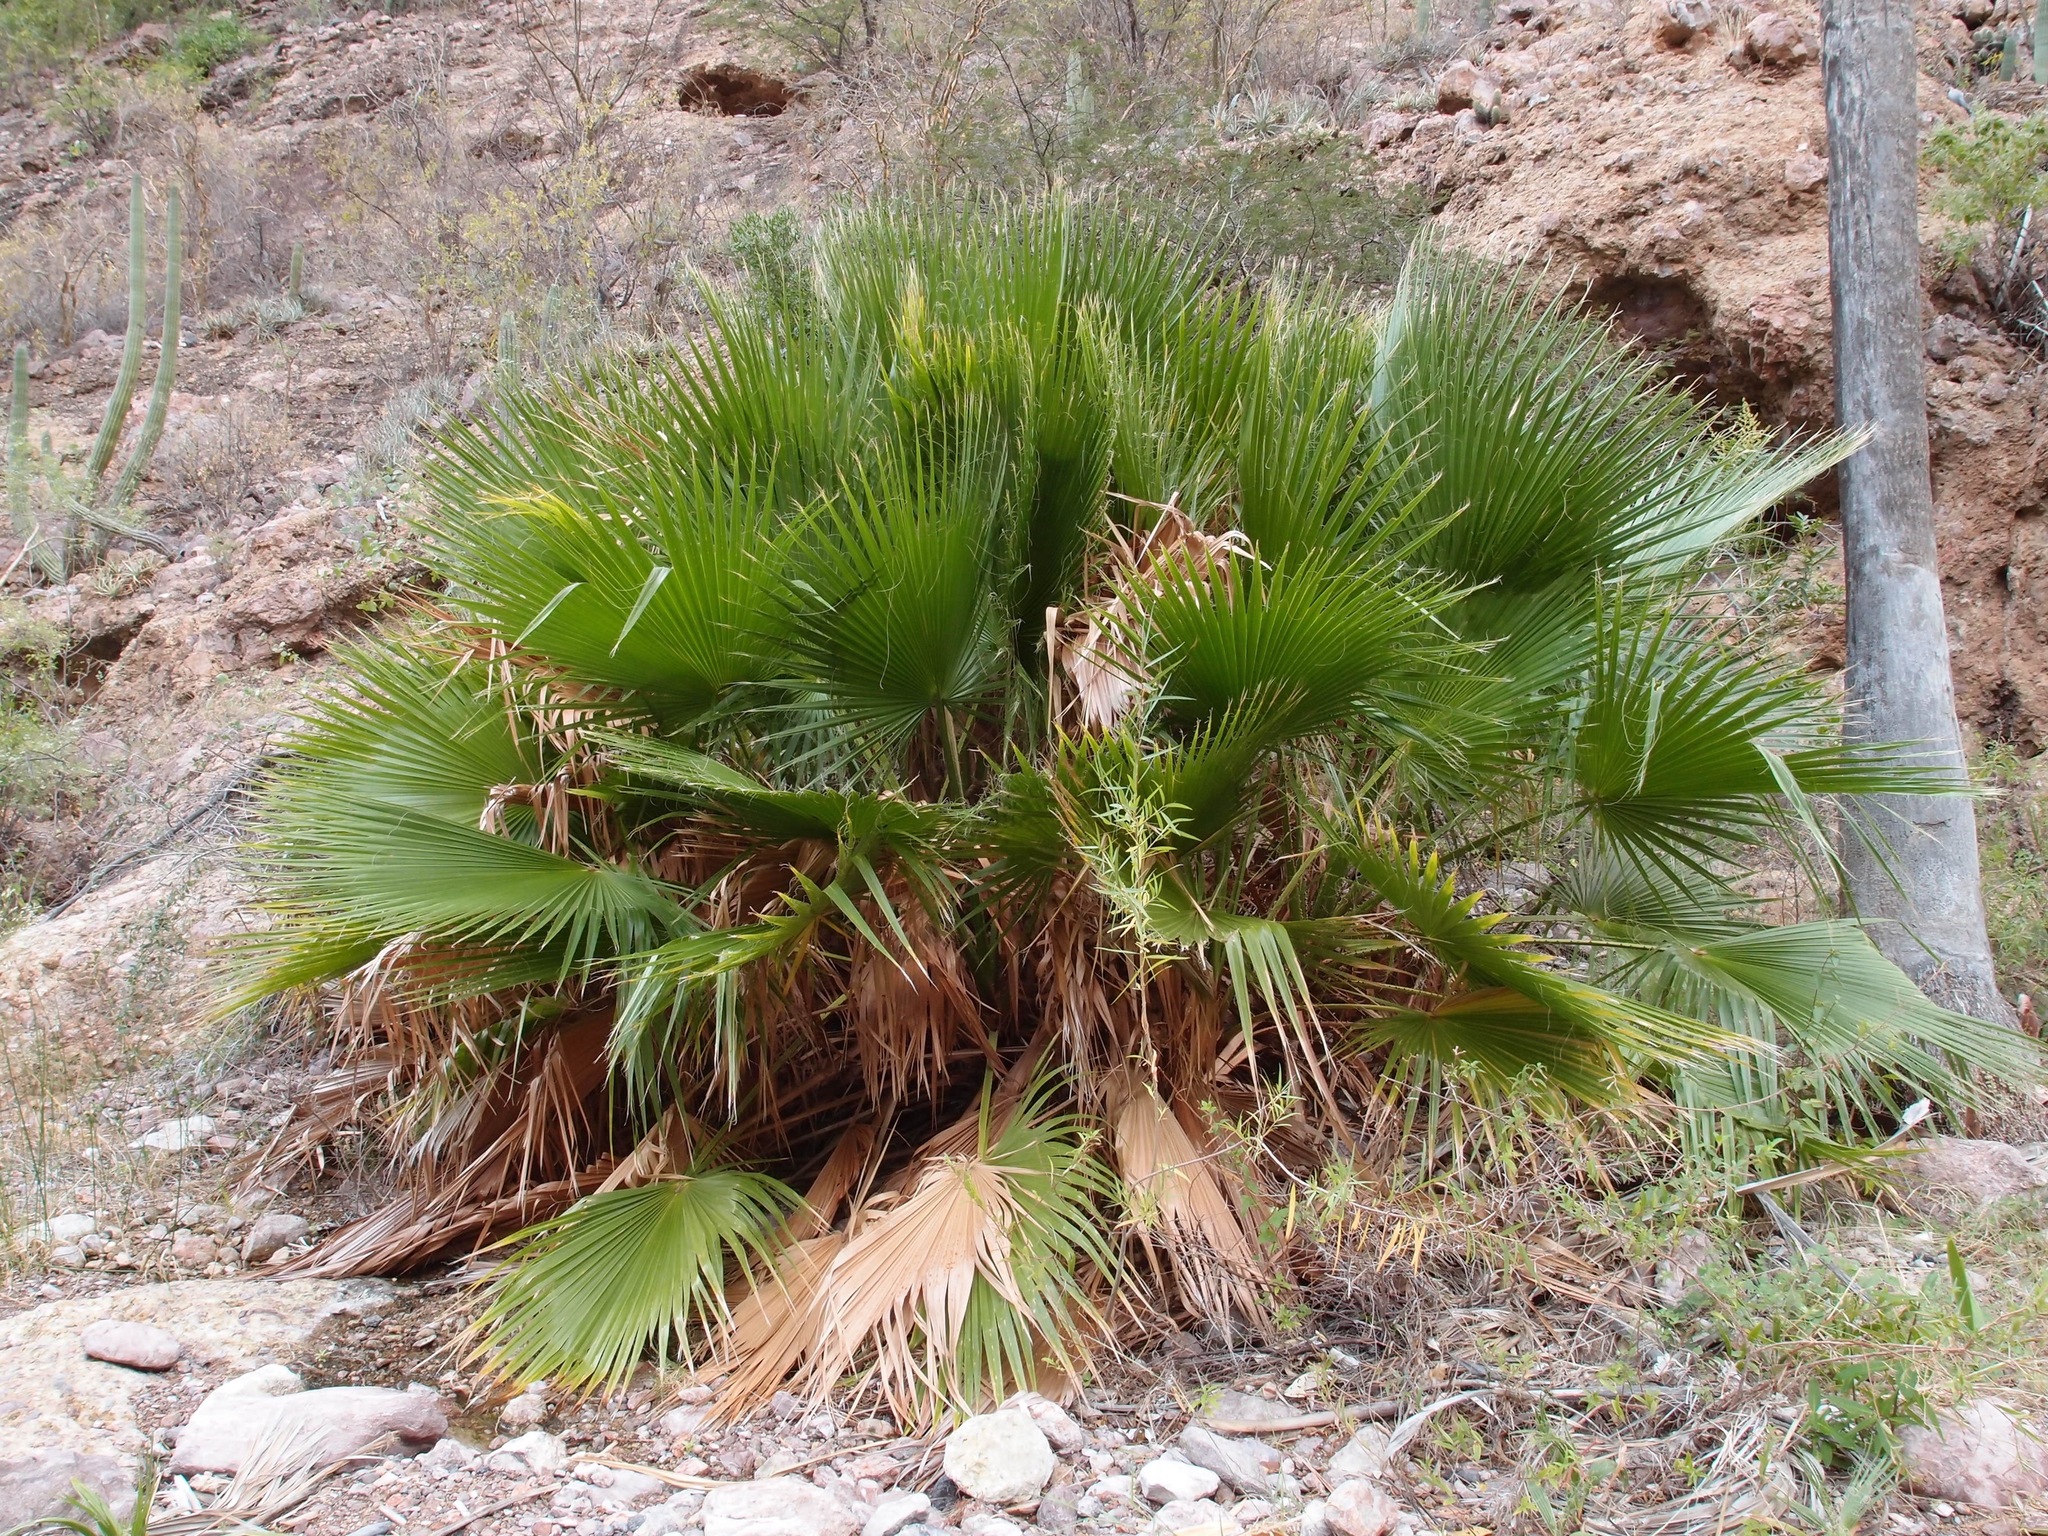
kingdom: Plantae
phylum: Tracheophyta
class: Liliopsida
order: Arecales
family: Arecaceae
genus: Washingtonia
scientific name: Washingtonia robusta
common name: Mexican fan palm
